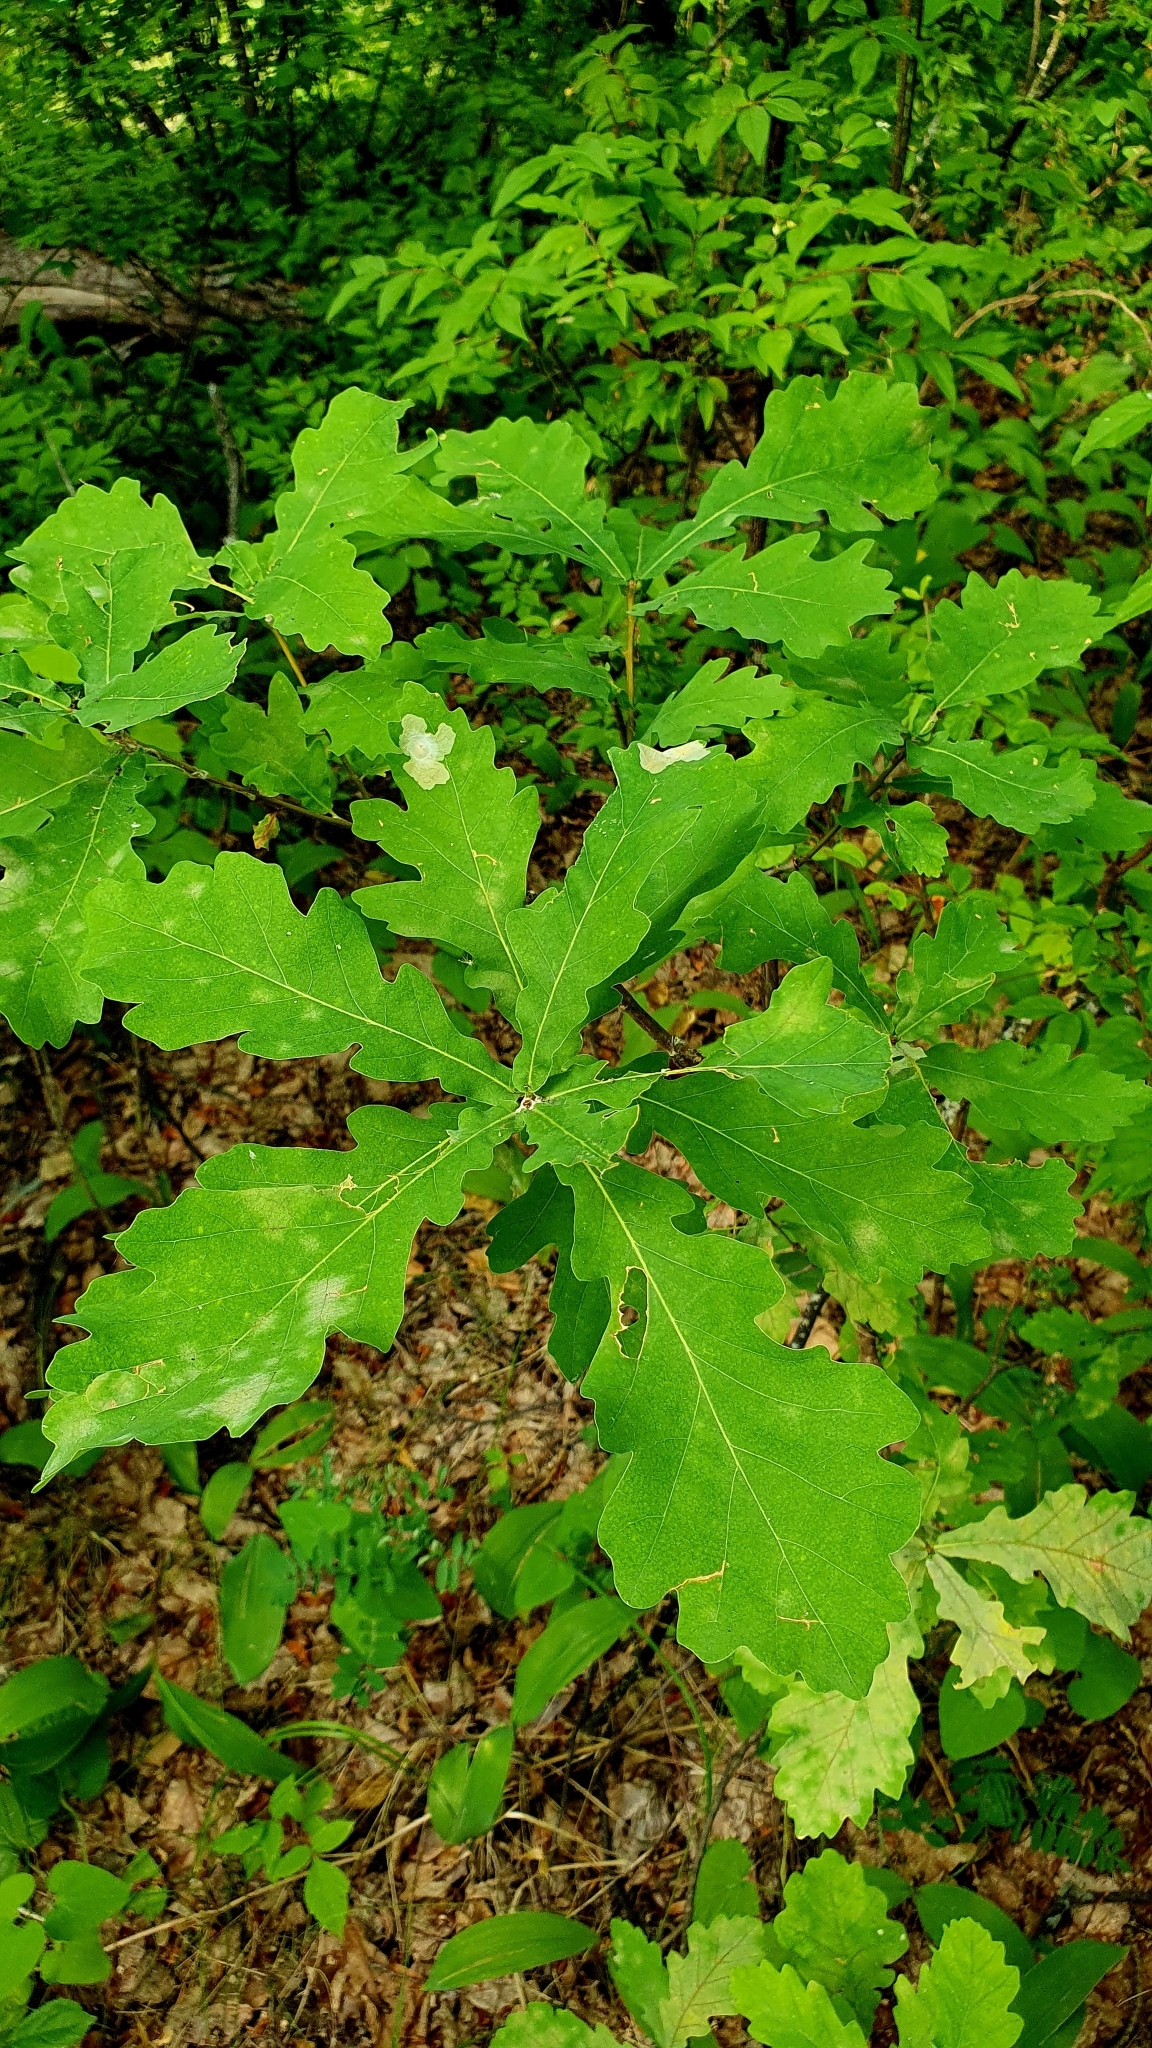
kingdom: Plantae
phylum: Tracheophyta
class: Magnoliopsida
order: Fagales
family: Fagaceae
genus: Quercus
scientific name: Quercus robur
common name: Pedunculate oak
